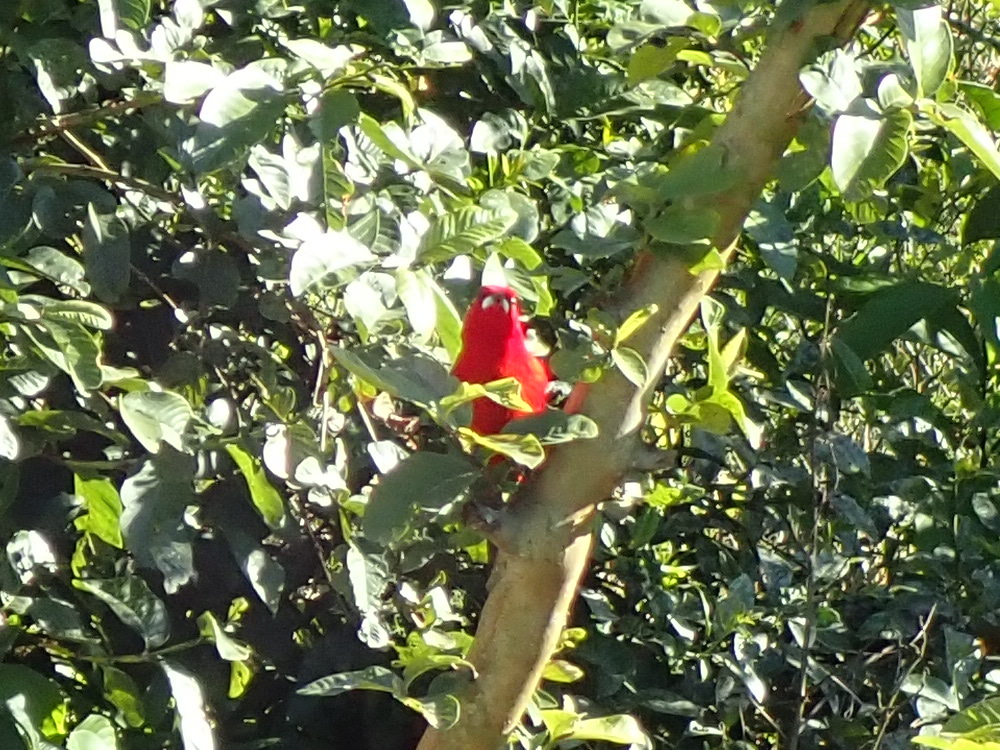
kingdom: Animalia
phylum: Chordata
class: Aves
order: Passeriformes
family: Thraupidae
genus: Ramphocelus
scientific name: Ramphocelus bresilia
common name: Brazilian tanager
